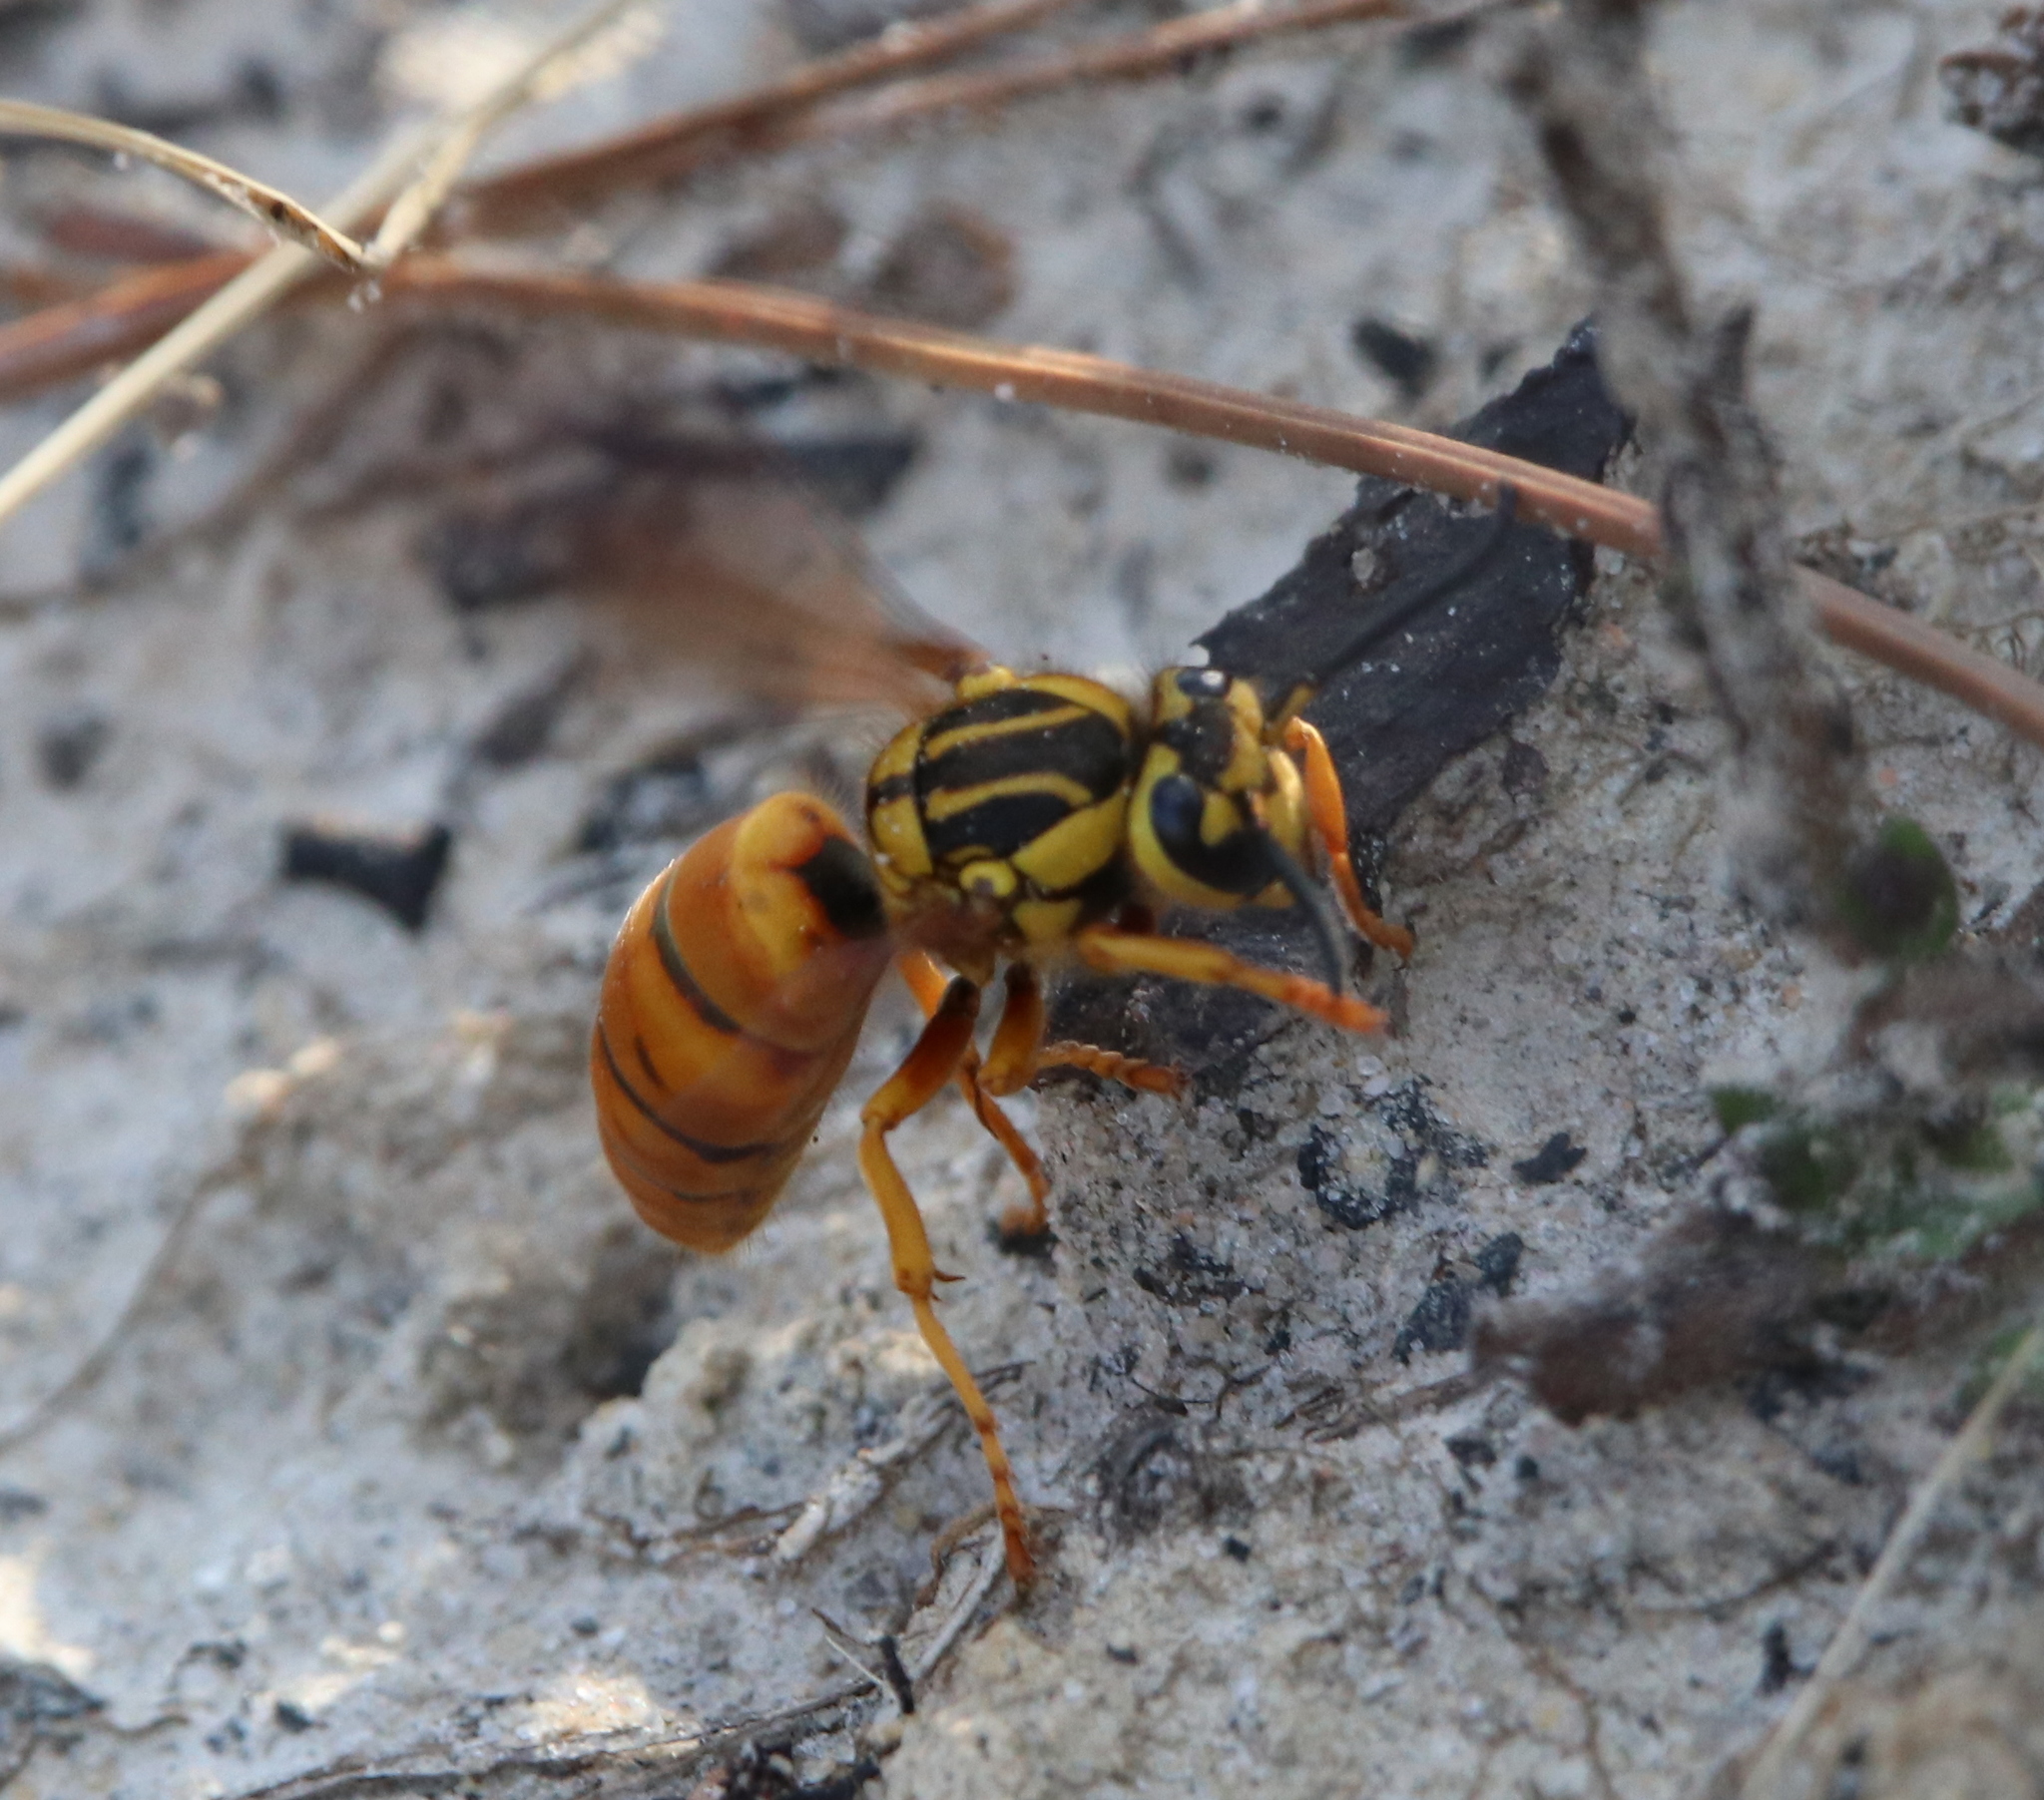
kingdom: Animalia
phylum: Arthropoda
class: Insecta
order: Hymenoptera
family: Vespidae
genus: Vespula
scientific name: Vespula squamosa
